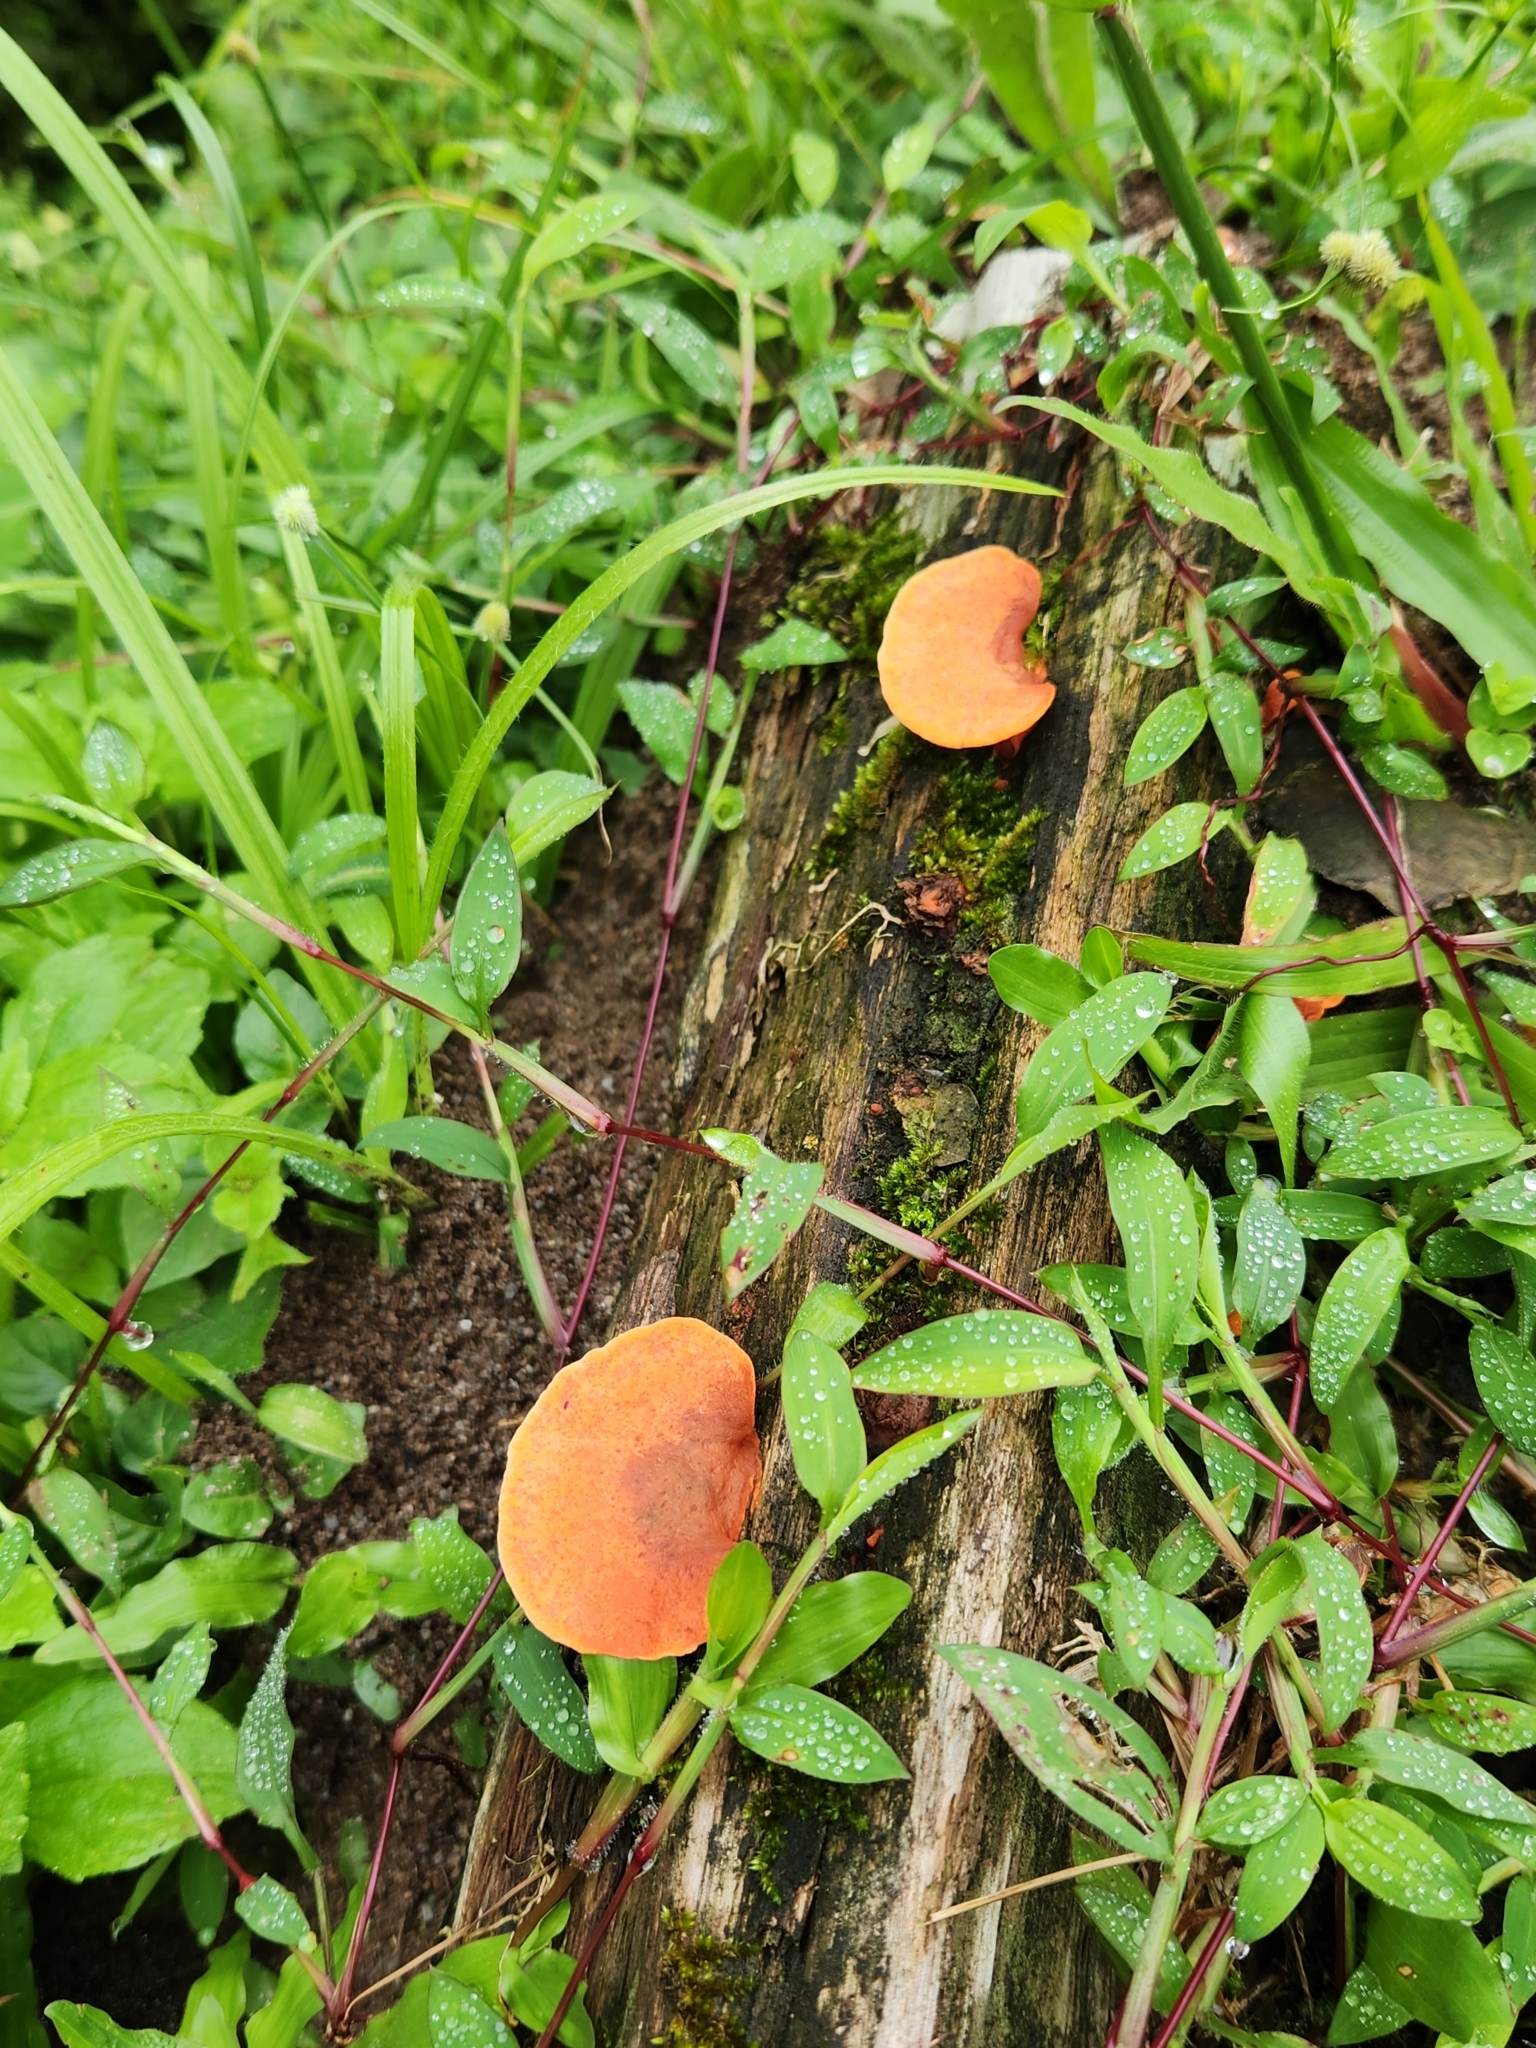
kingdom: Fungi
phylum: Basidiomycota
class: Agaricomycetes
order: Polyporales
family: Polyporaceae
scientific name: Polyporaceae
